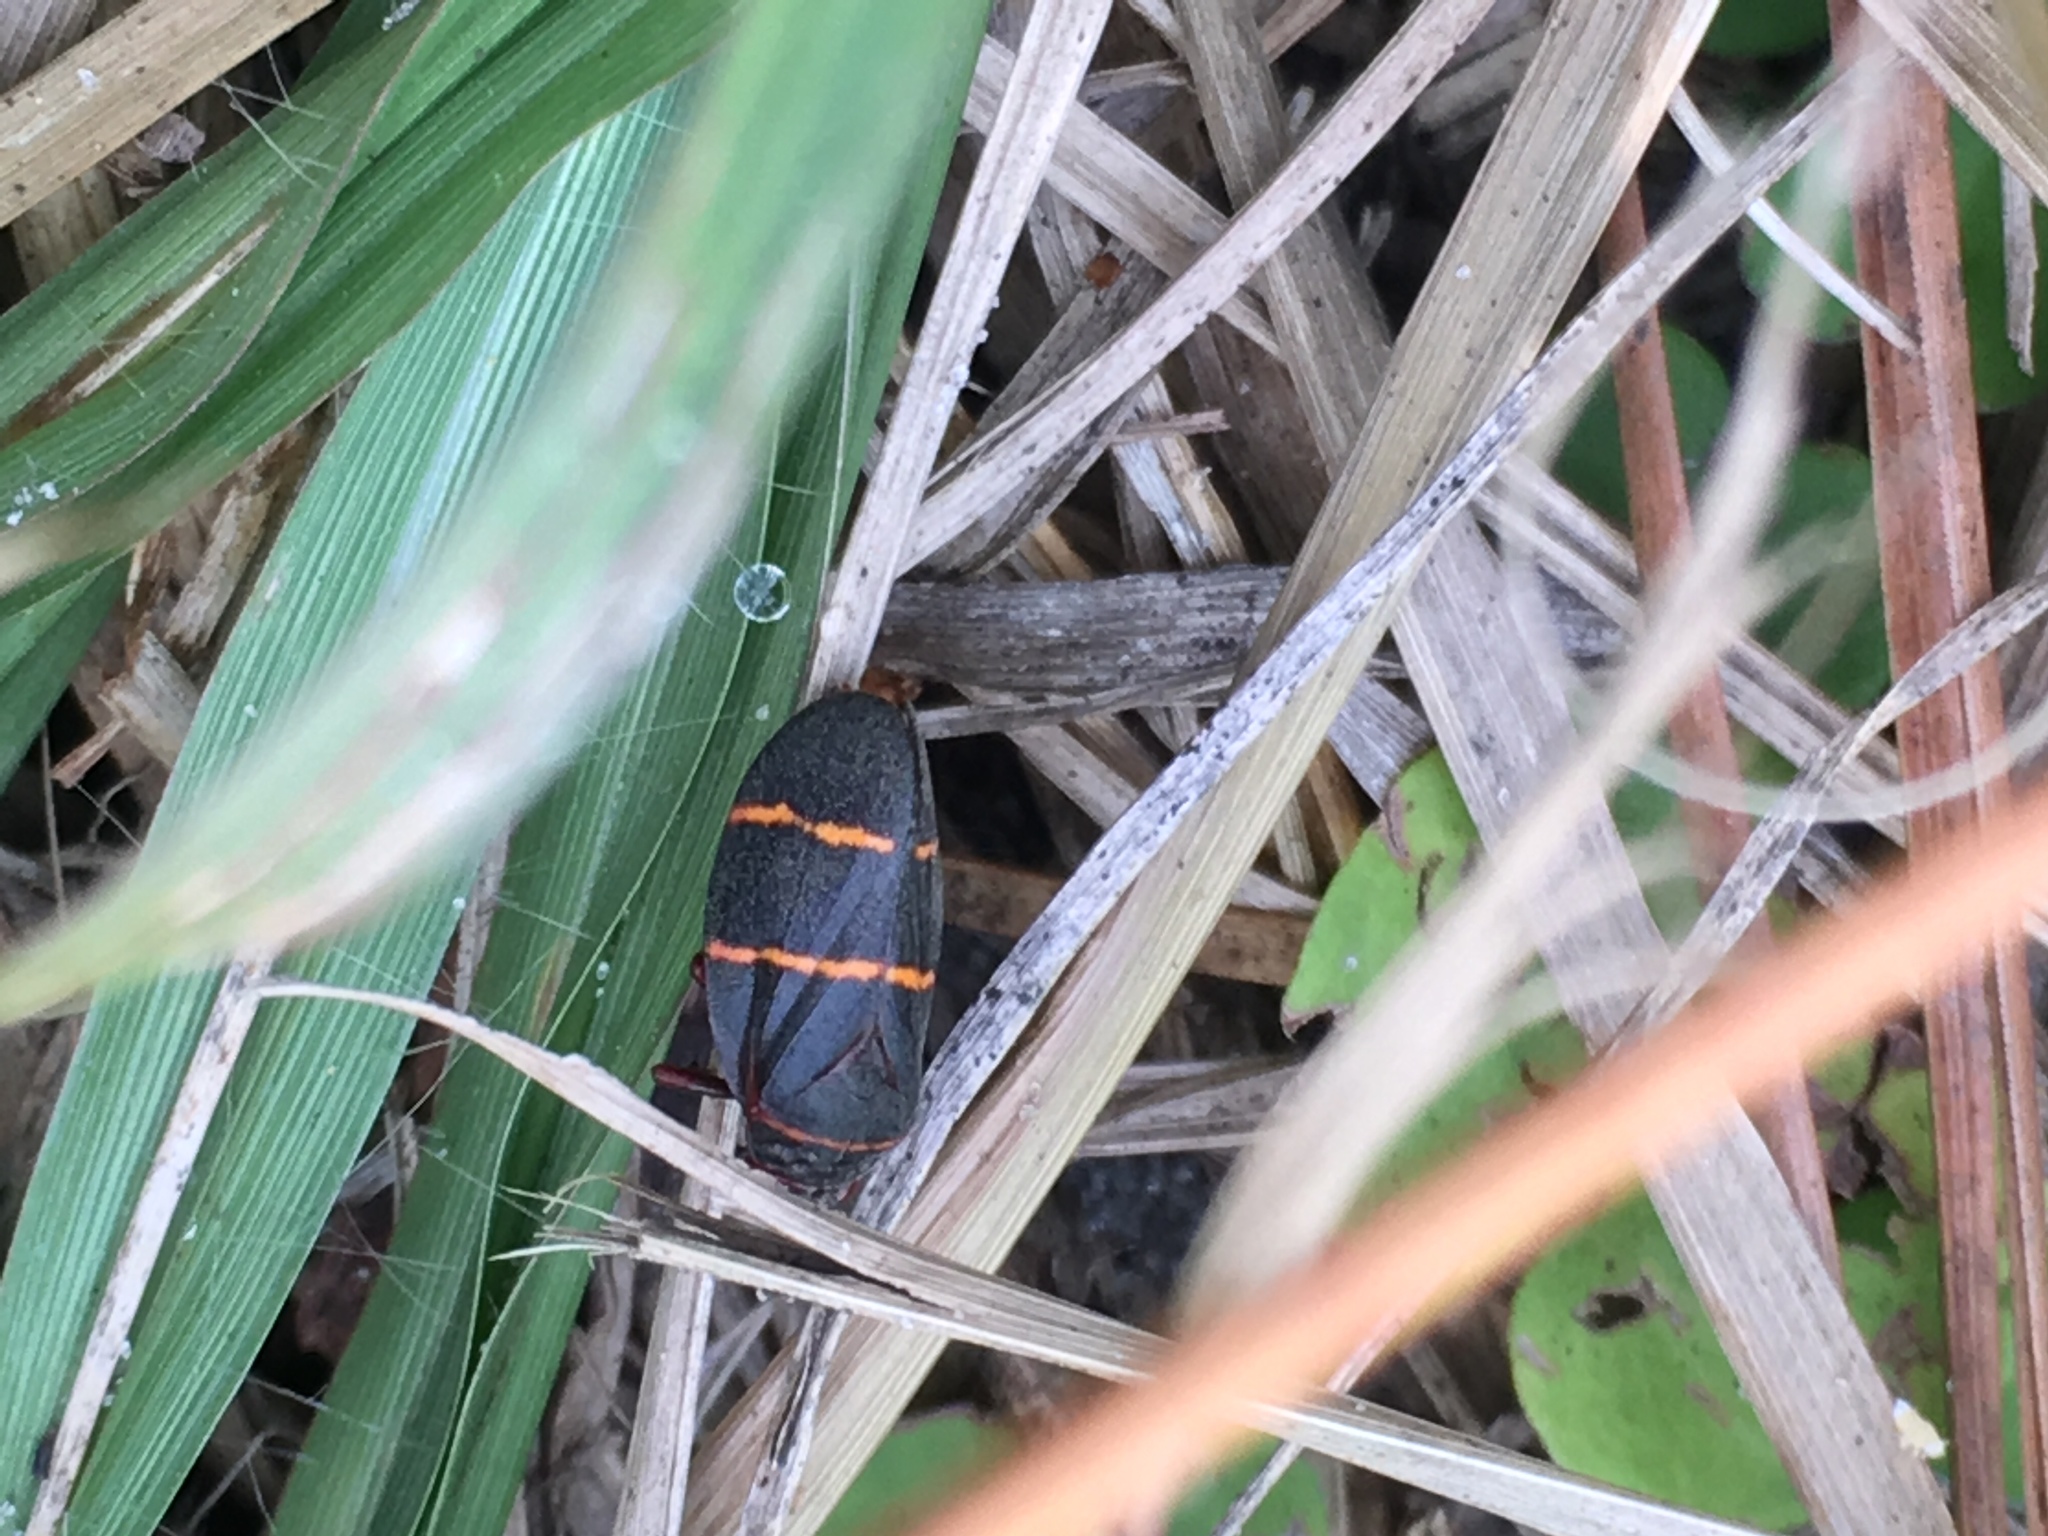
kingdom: Animalia
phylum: Arthropoda
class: Insecta
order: Hemiptera
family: Cercopidae
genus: Prosapia
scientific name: Prosapia bicincta
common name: Twolined spittlebug
